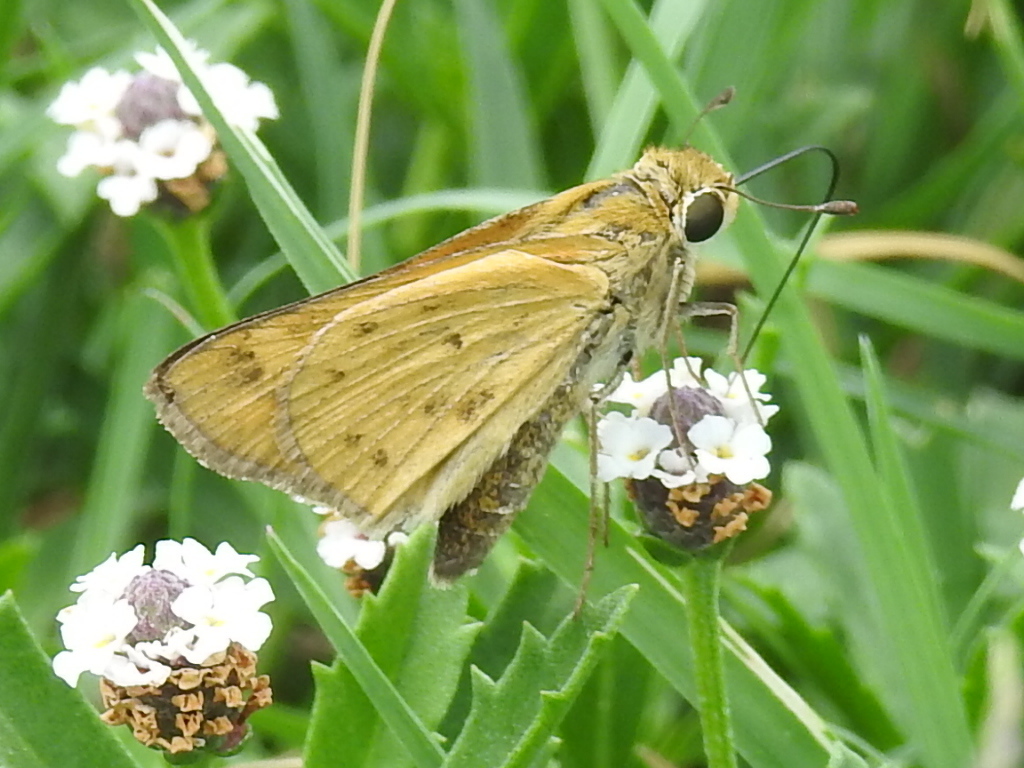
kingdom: Animalia
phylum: Arthropoda
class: Insecta
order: Lepidoptera
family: Hesperiidae
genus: Hylephila
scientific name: Hylephila phyleus
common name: Fiery skipper
